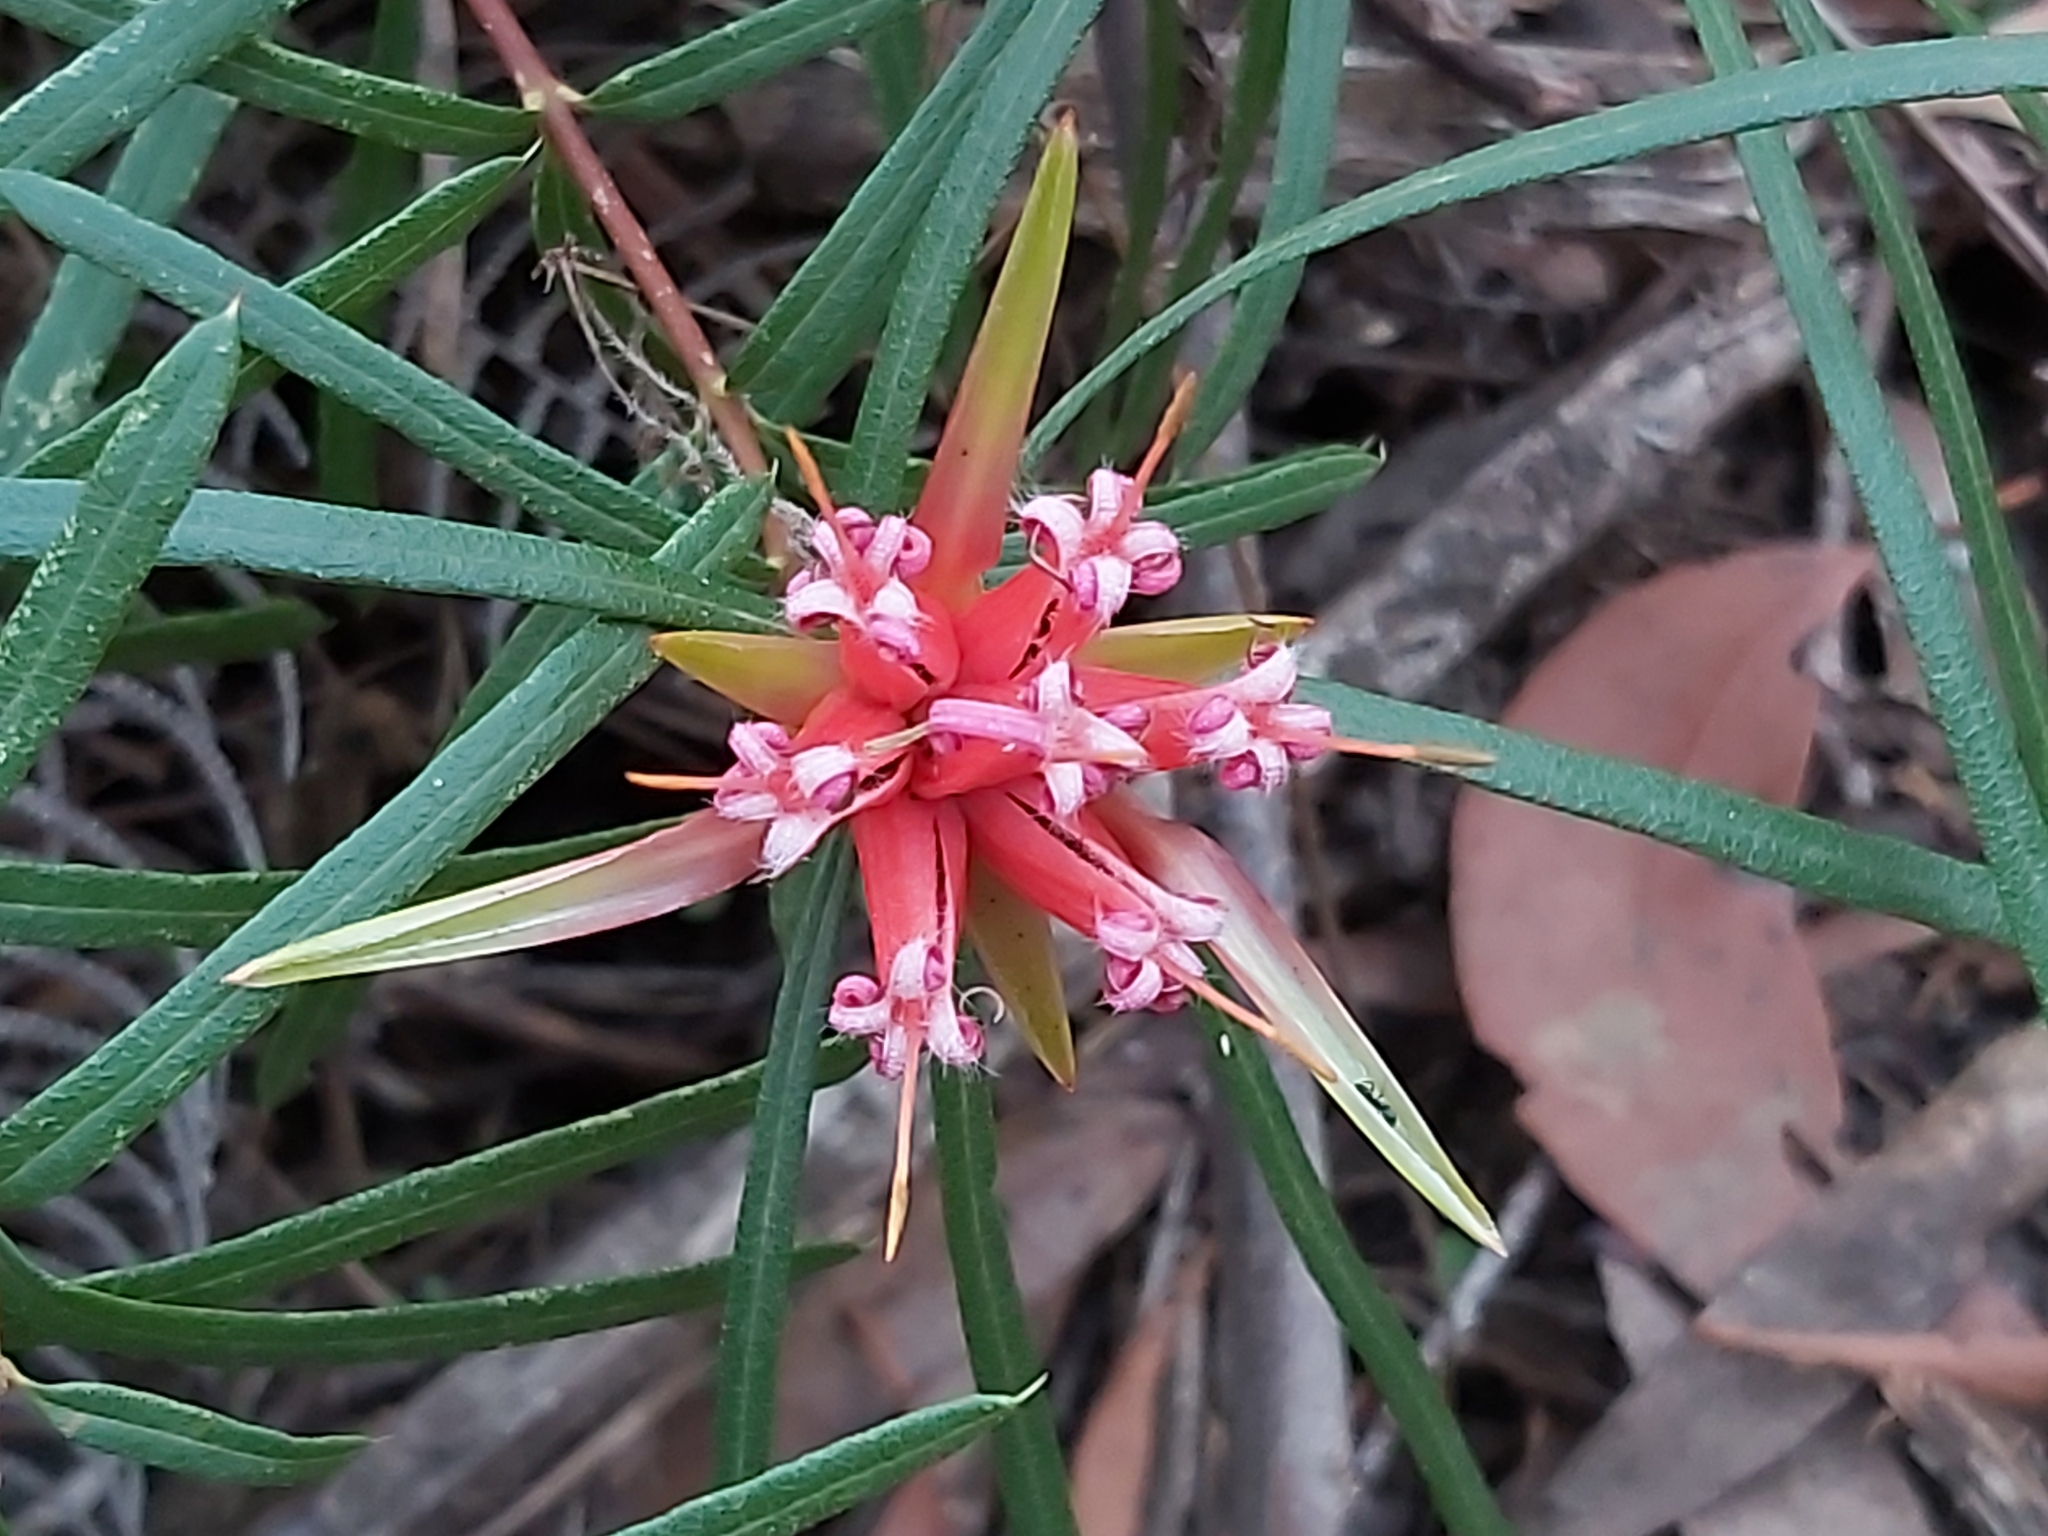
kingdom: Plantae
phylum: Tracheophyta
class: Magnoliopsida
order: Proteales
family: Proteaceae
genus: Lambertia
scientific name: Lambertia formosa
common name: Mountain-devil
